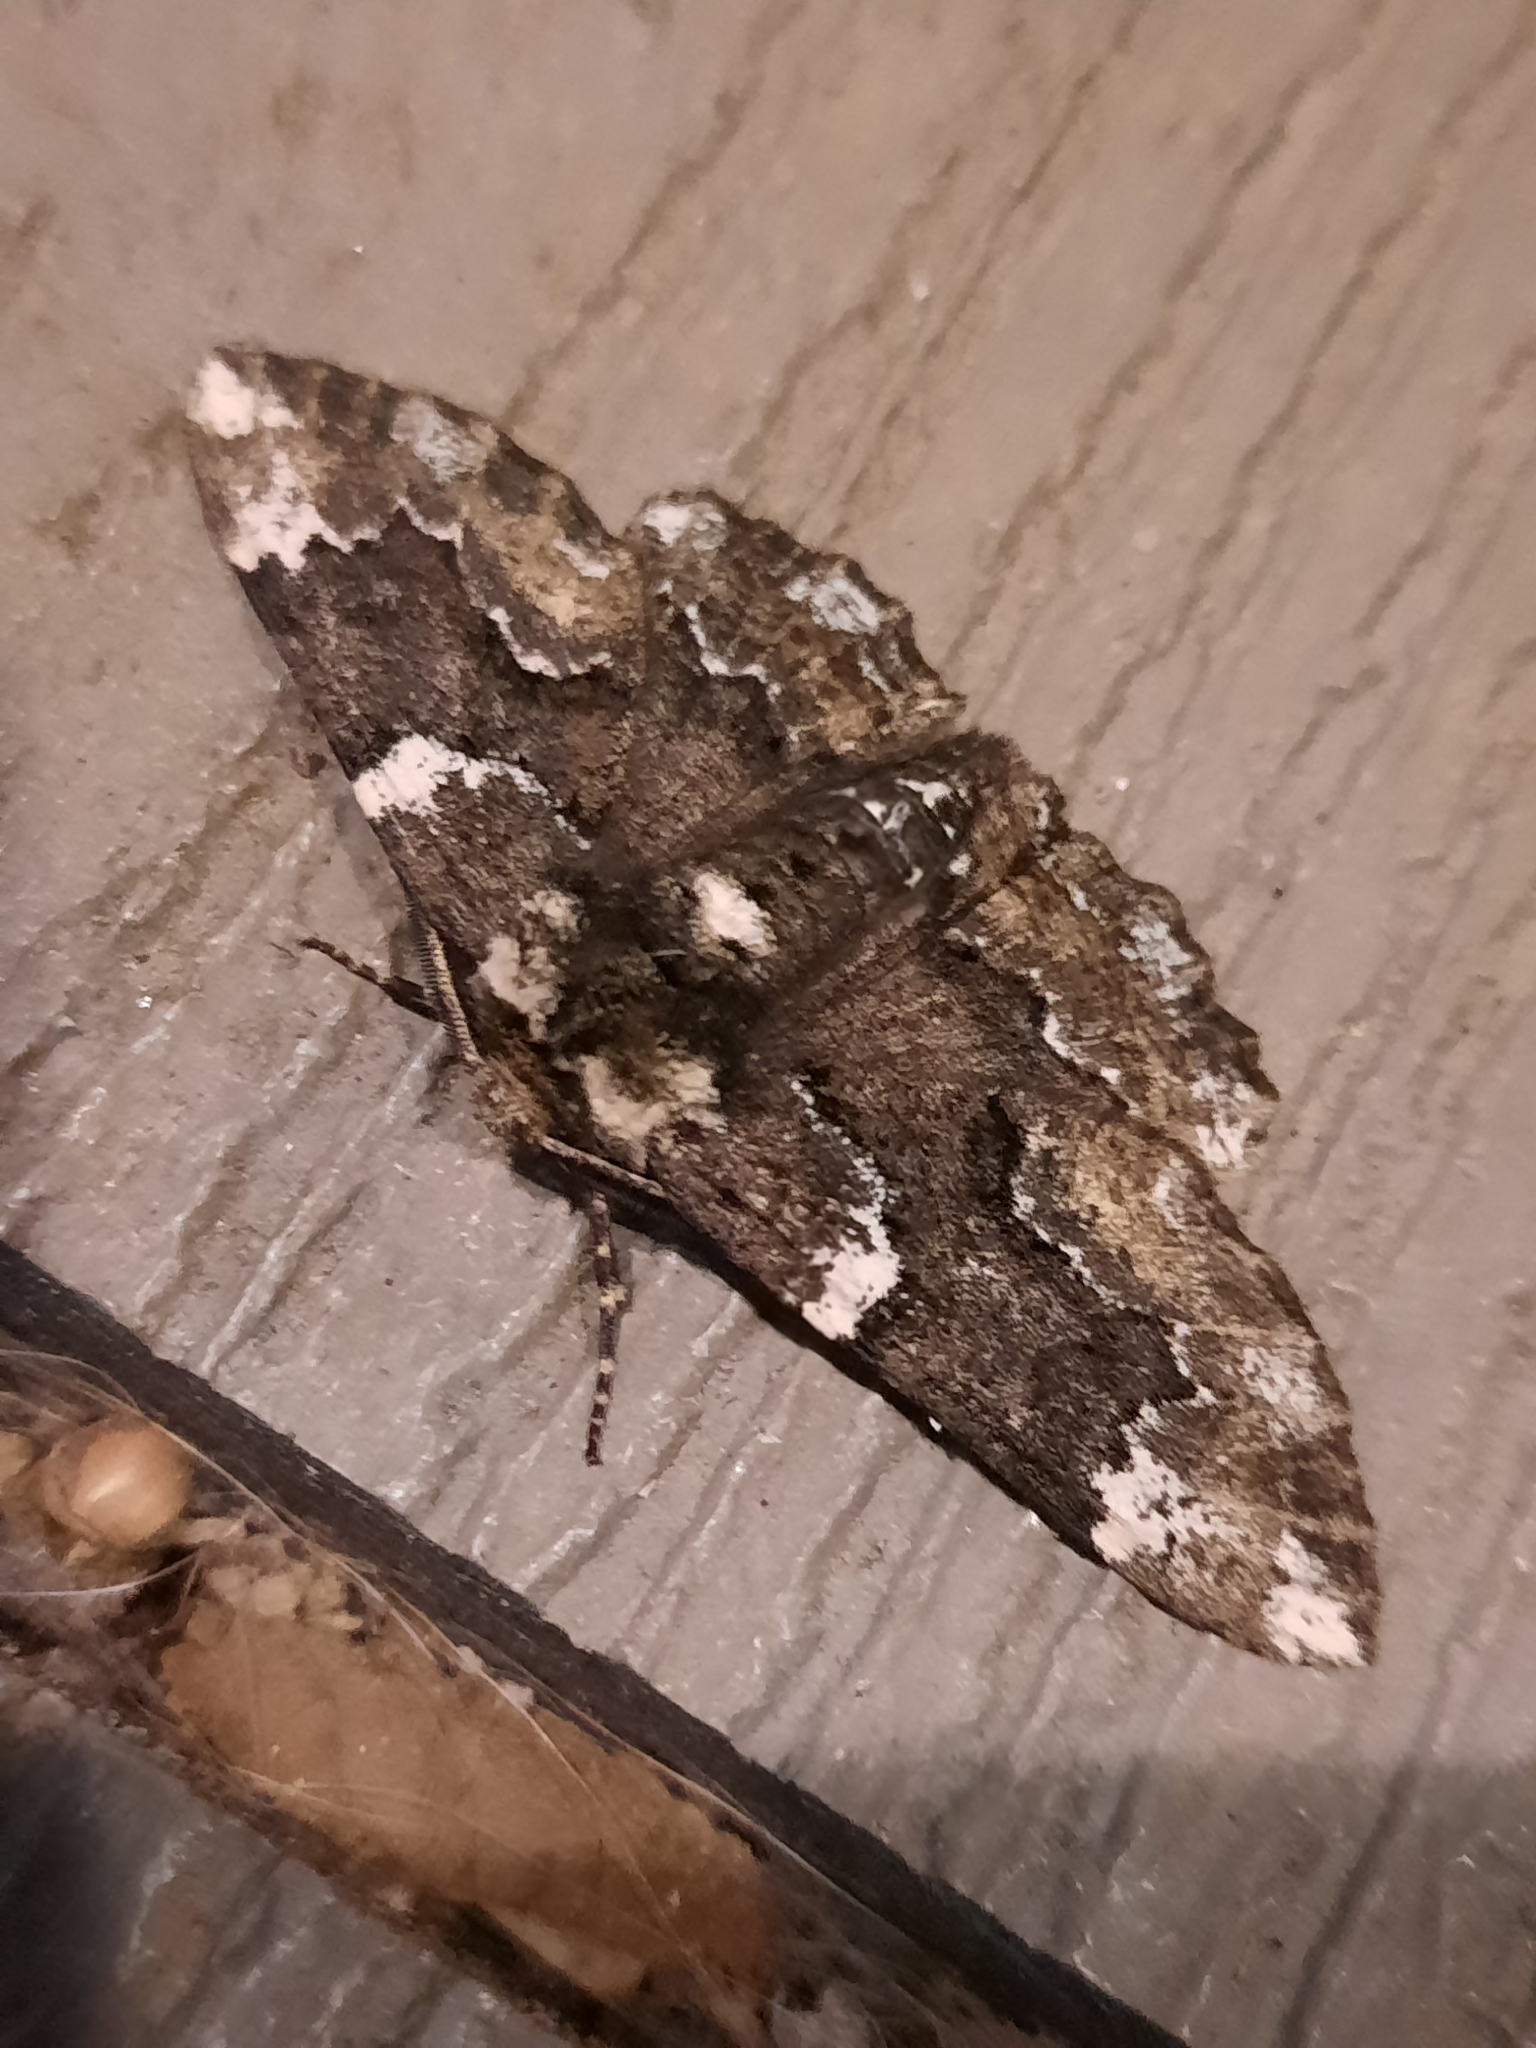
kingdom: Animalia
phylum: Arthropoda
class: Insecta
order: Lepidoptera
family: Geometridae
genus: Phaeoura
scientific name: Phaeoura quernaria
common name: Oak beauty
